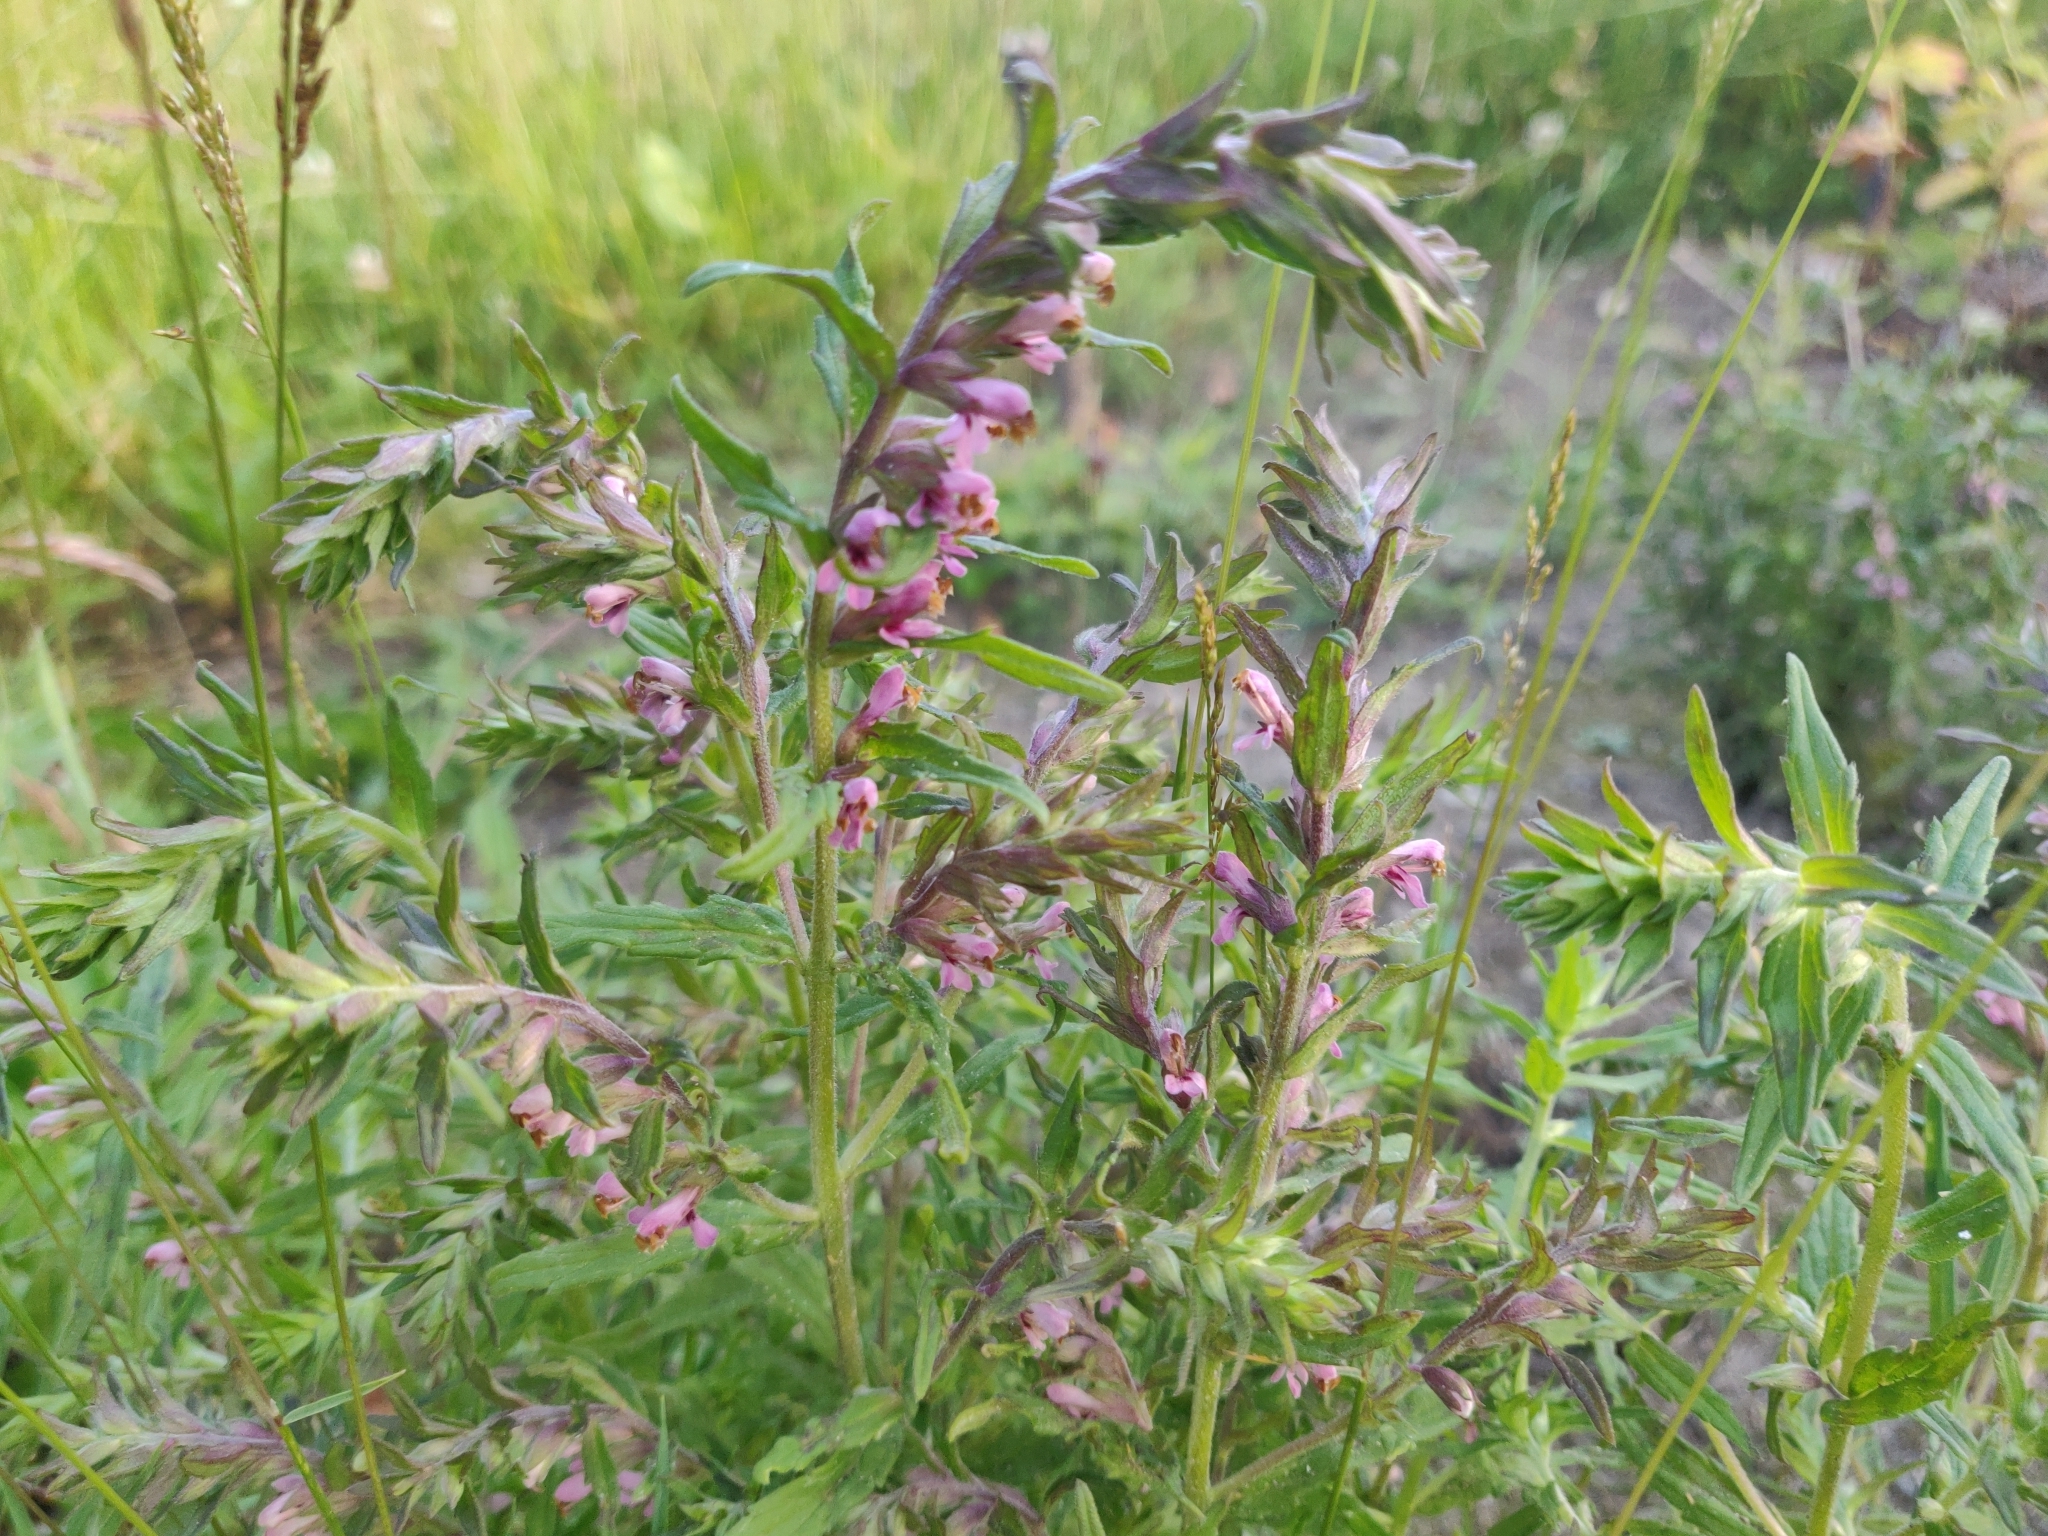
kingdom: Plantae
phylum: Tracheophyta
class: Magnoliopsida
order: Lamiales
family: Orobanchaceae
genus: Odontites
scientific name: Odontites vulgaris
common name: Broomrape
